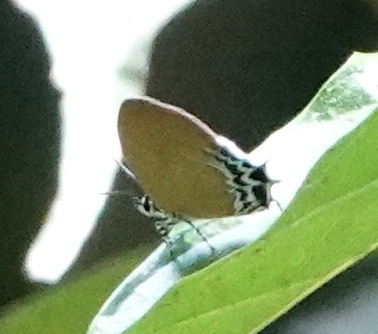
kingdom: Animalia
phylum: Arthropoda
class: Insecta
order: Lepidoptera
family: Lycaenidae
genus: Drupadia
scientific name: Drupadia cindi
